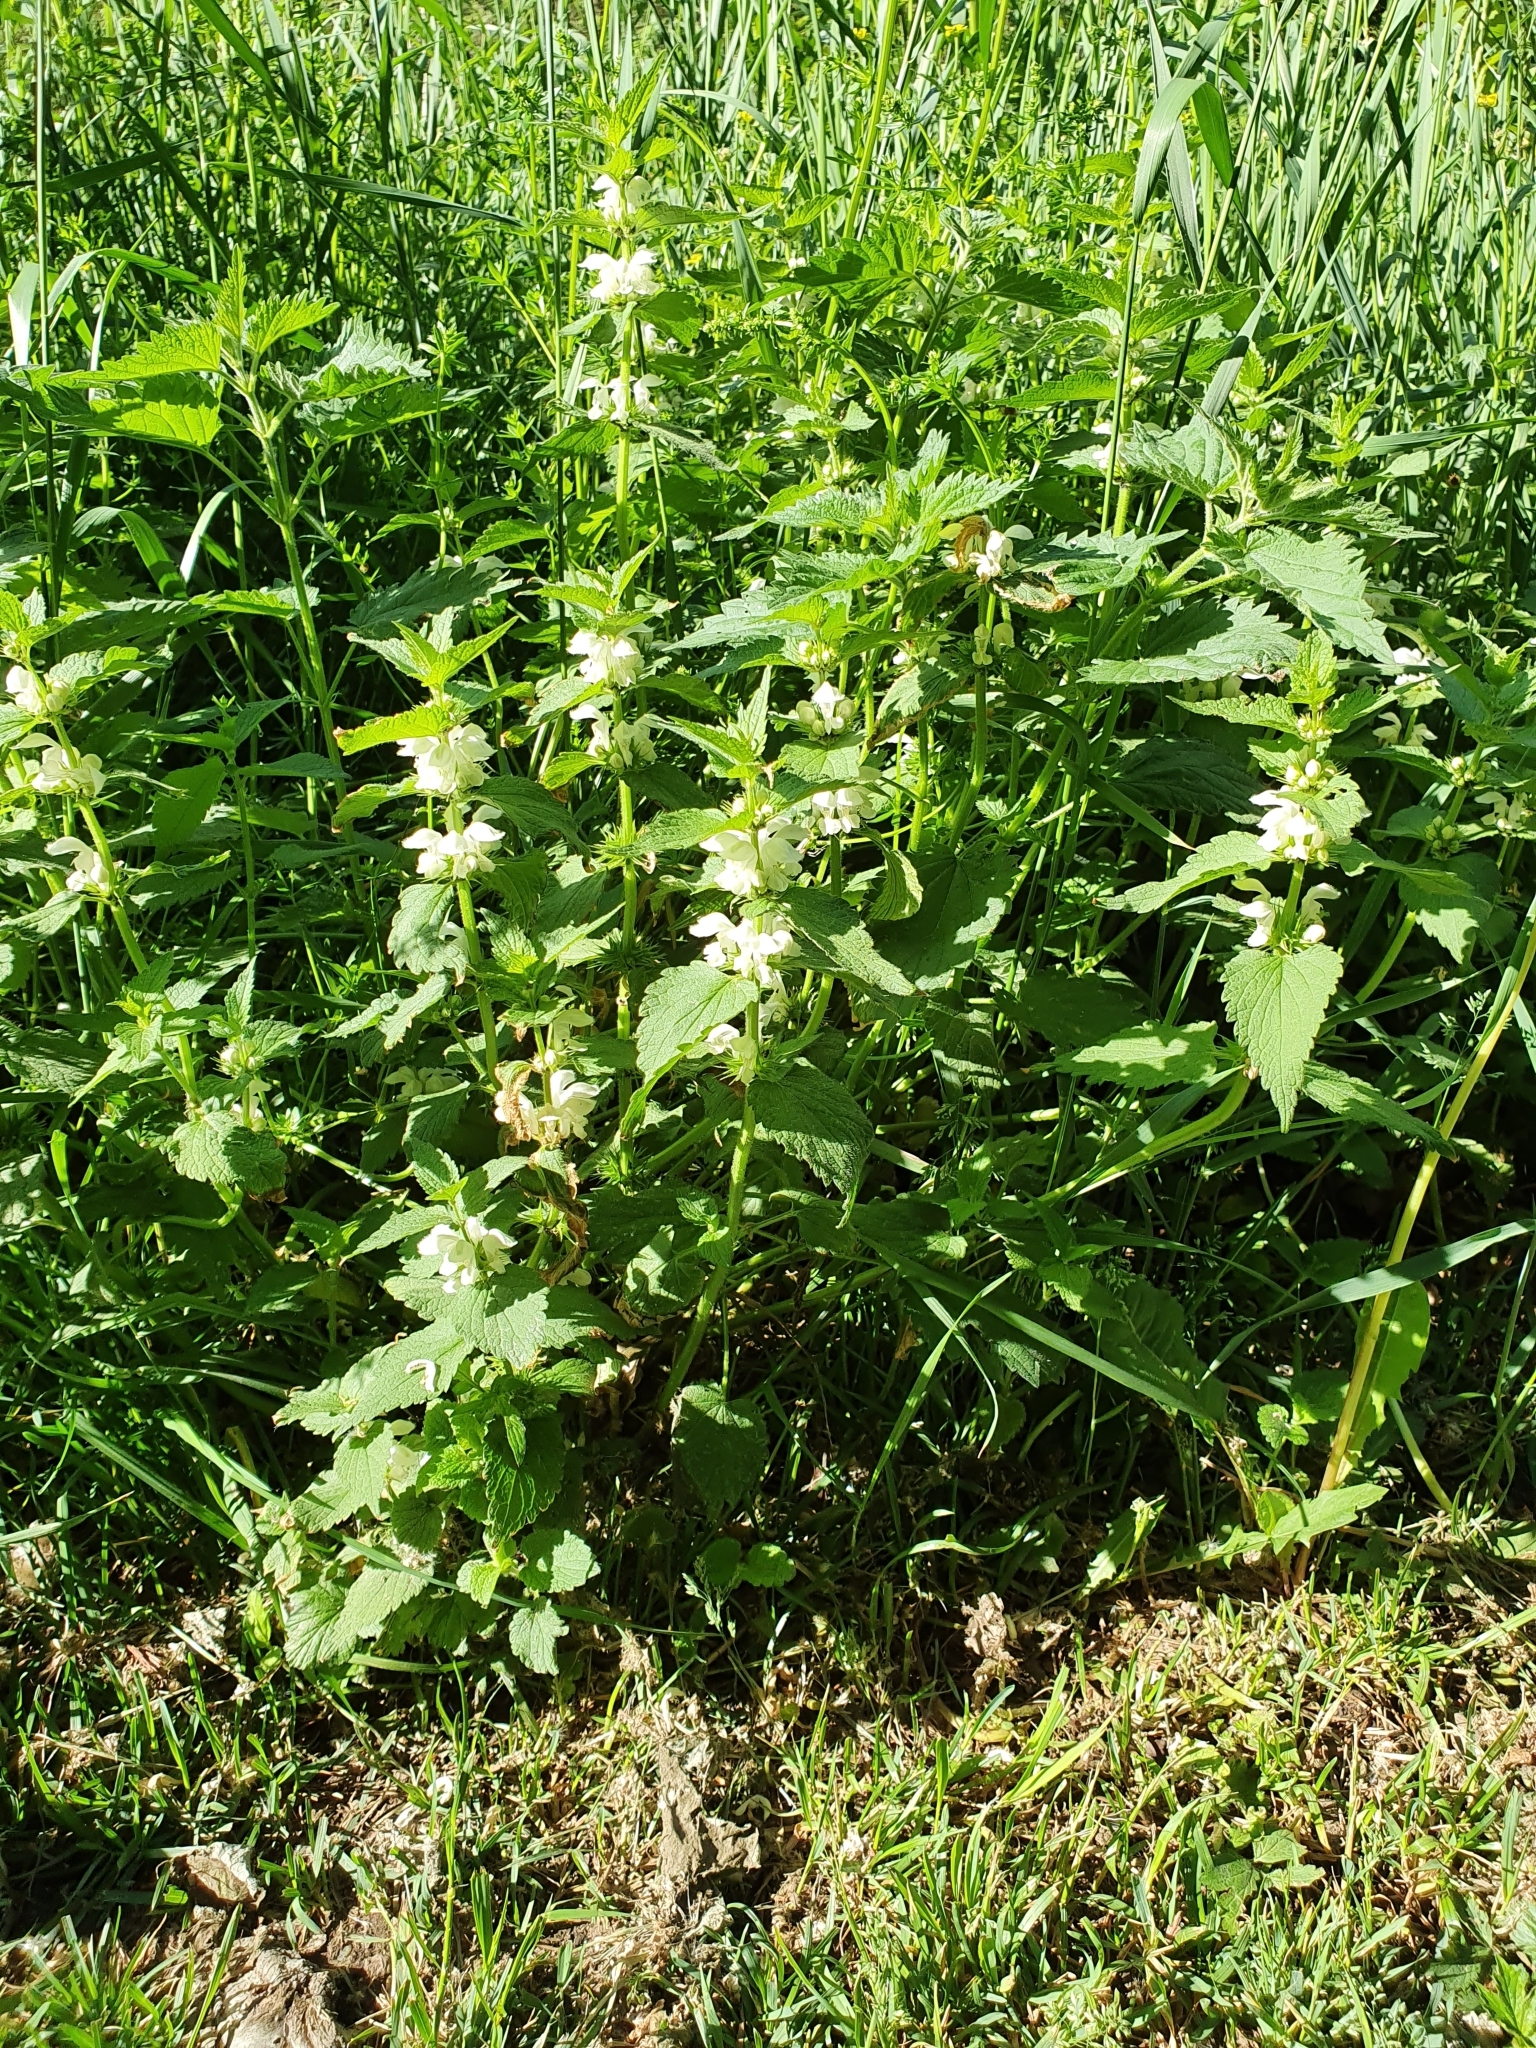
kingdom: Plantae
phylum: Tracheophyta
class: Magnoliopsida
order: Lamiales
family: Lamiaceae
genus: Lamium
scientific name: Lamium album
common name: White dead-nettle
